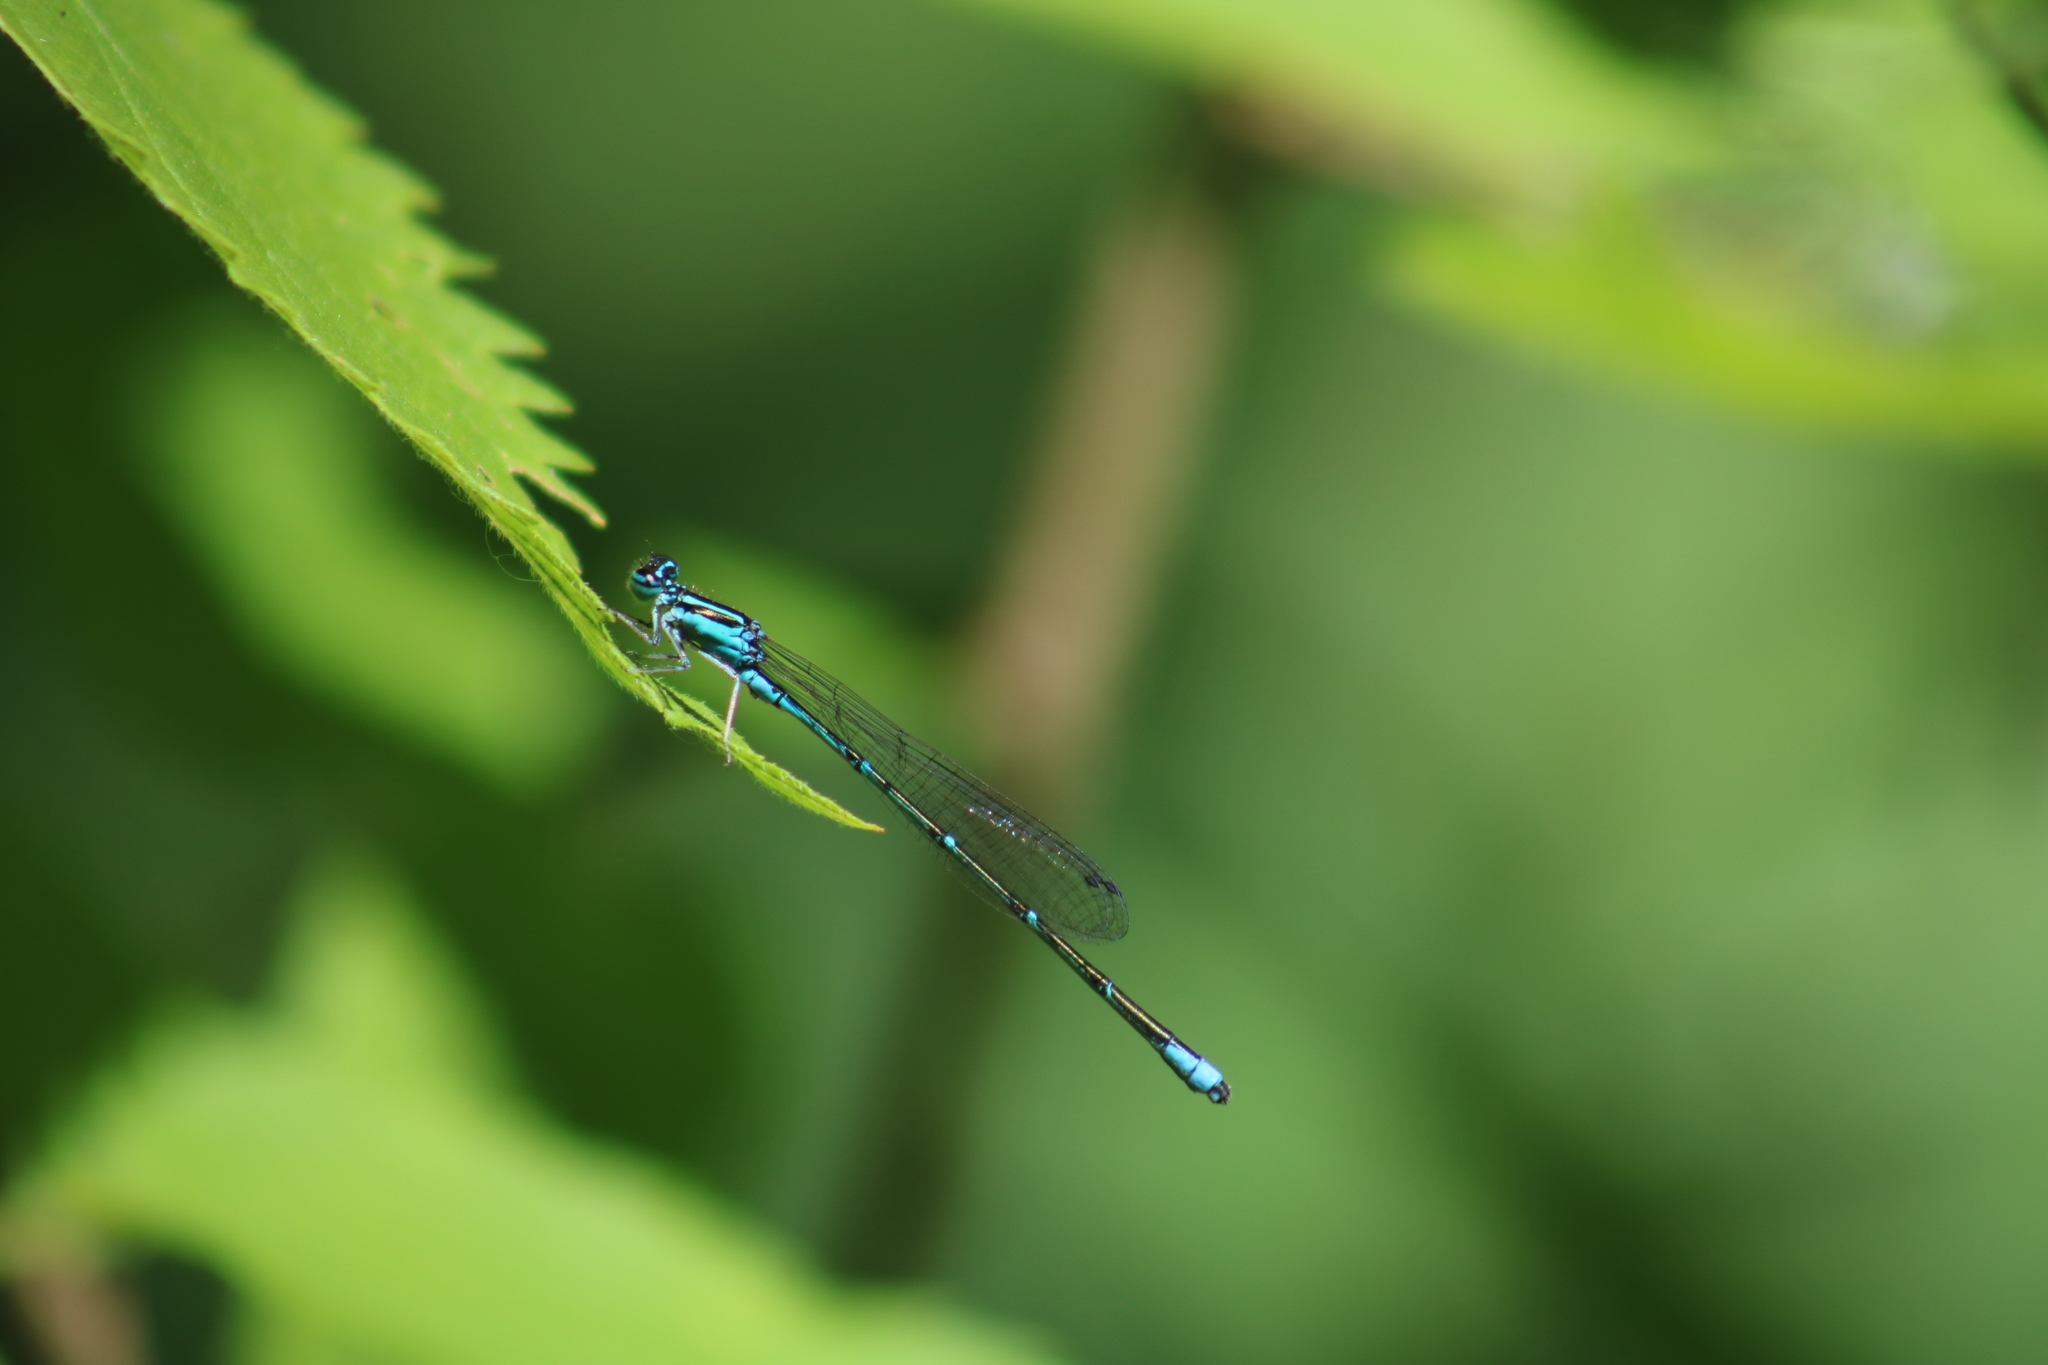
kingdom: Animalia
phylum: Arthropoda
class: Insecta
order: Odonata
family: Coenagrionidae
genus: Enallagma
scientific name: Enallagma exsulans
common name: Stream bluet
